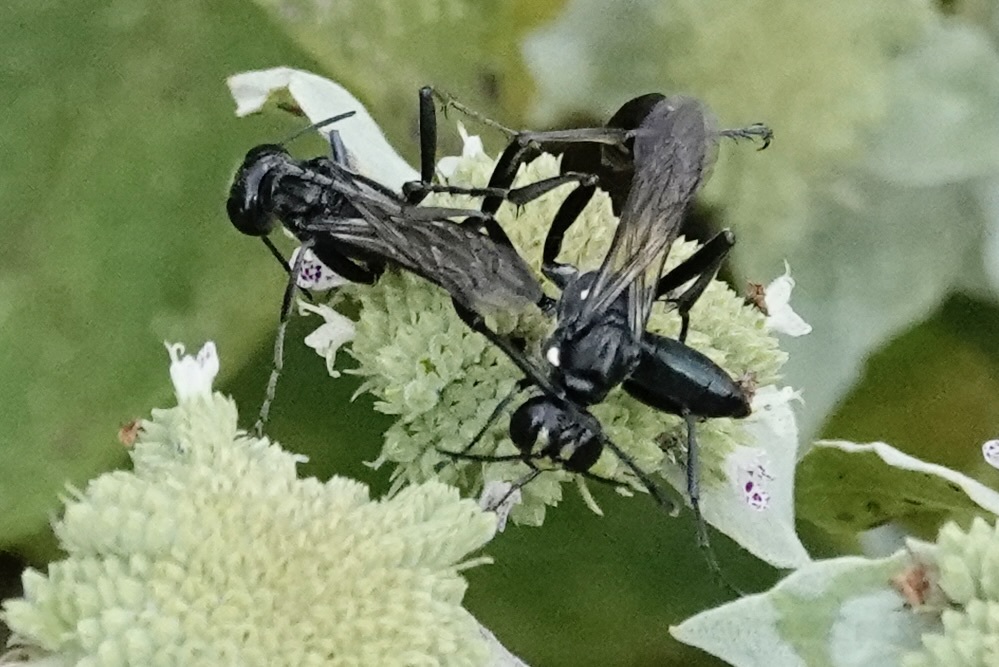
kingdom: Animalia
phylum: Arthropoda
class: Insecta
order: Hymenoptera
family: Sphecidae
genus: Eremnophila
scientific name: Eremnophila aureonotata
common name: Gold-marked thread-waisted wasp
